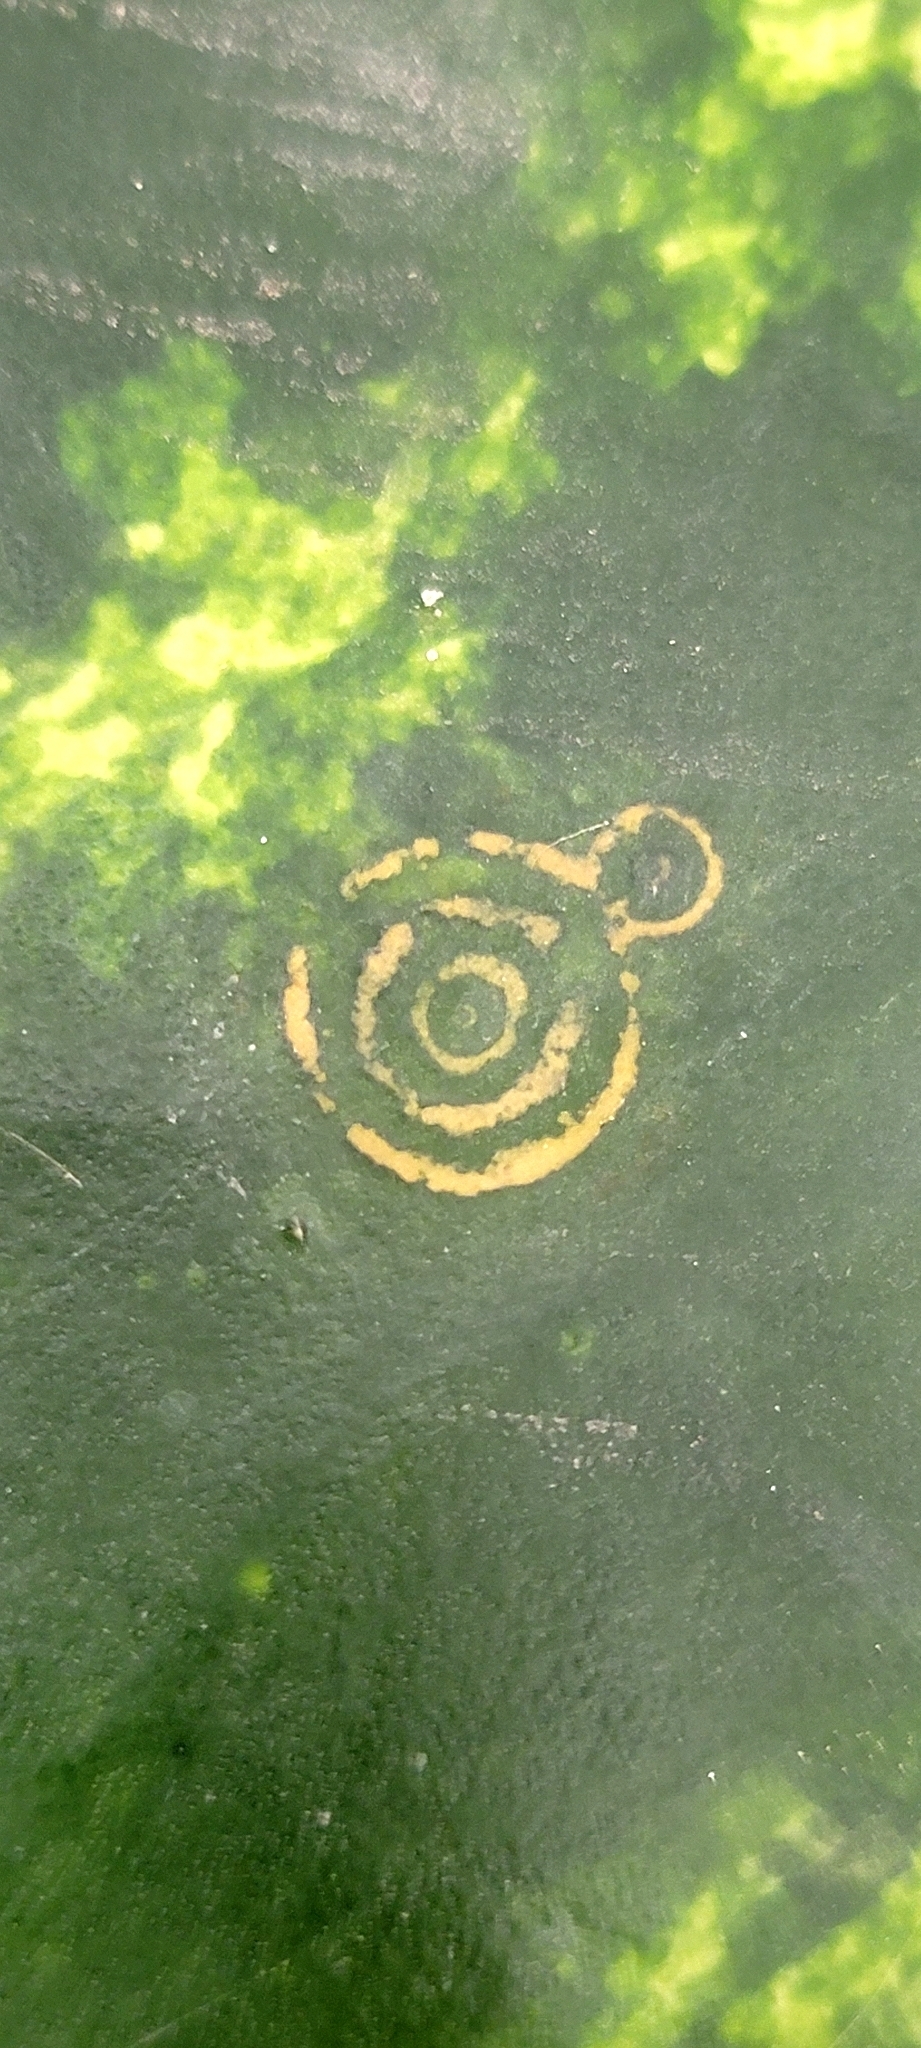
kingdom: Viruses
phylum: Pisuviricota
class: Stelpaviricetes
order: Patatavirales
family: Potyviridae
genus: Potyvirus
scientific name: Potyvirus Watermelon mosaic virus
